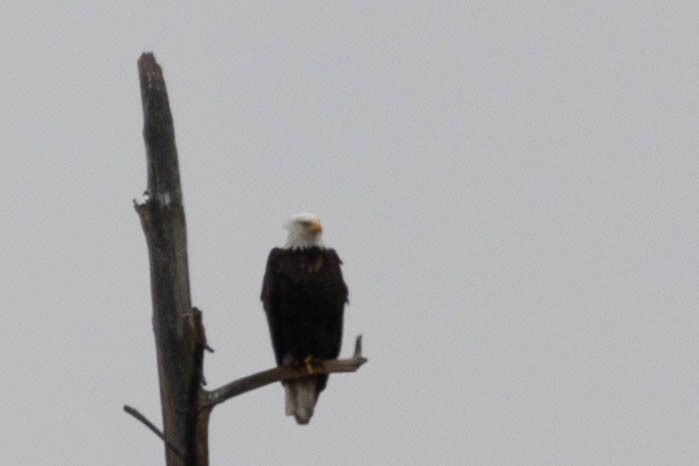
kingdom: Animalia
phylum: Chordata
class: Aves
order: Accipitriformes
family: Accipitridae
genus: Haliaeetus
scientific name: Haliaeetus leucocephalus
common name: Bald eagle
